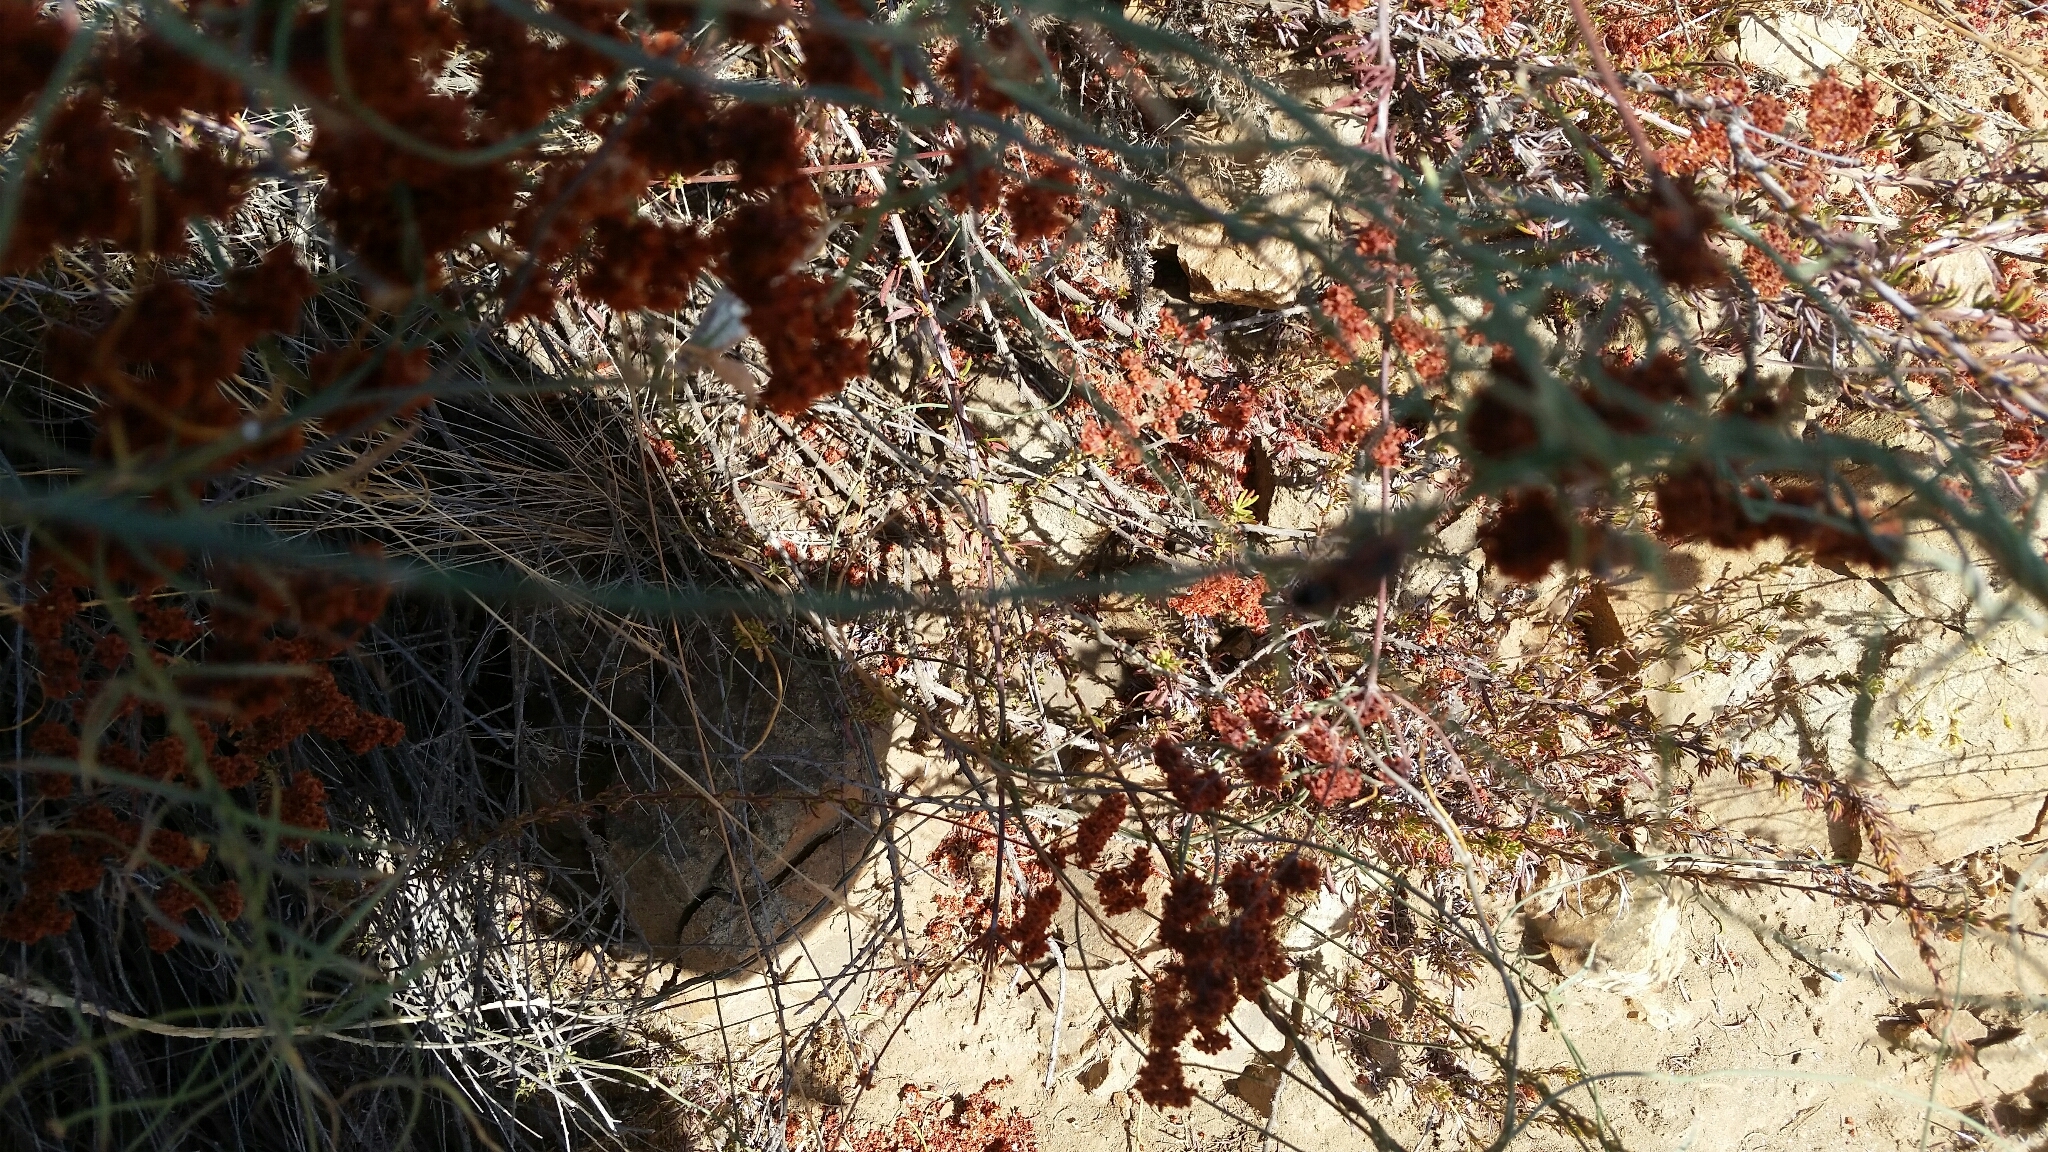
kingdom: Animalia
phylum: Arthropoda
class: Insecta
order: Hemiptera
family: Lygaeidae
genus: Lygaeus
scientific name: Lygaeus kalmii
